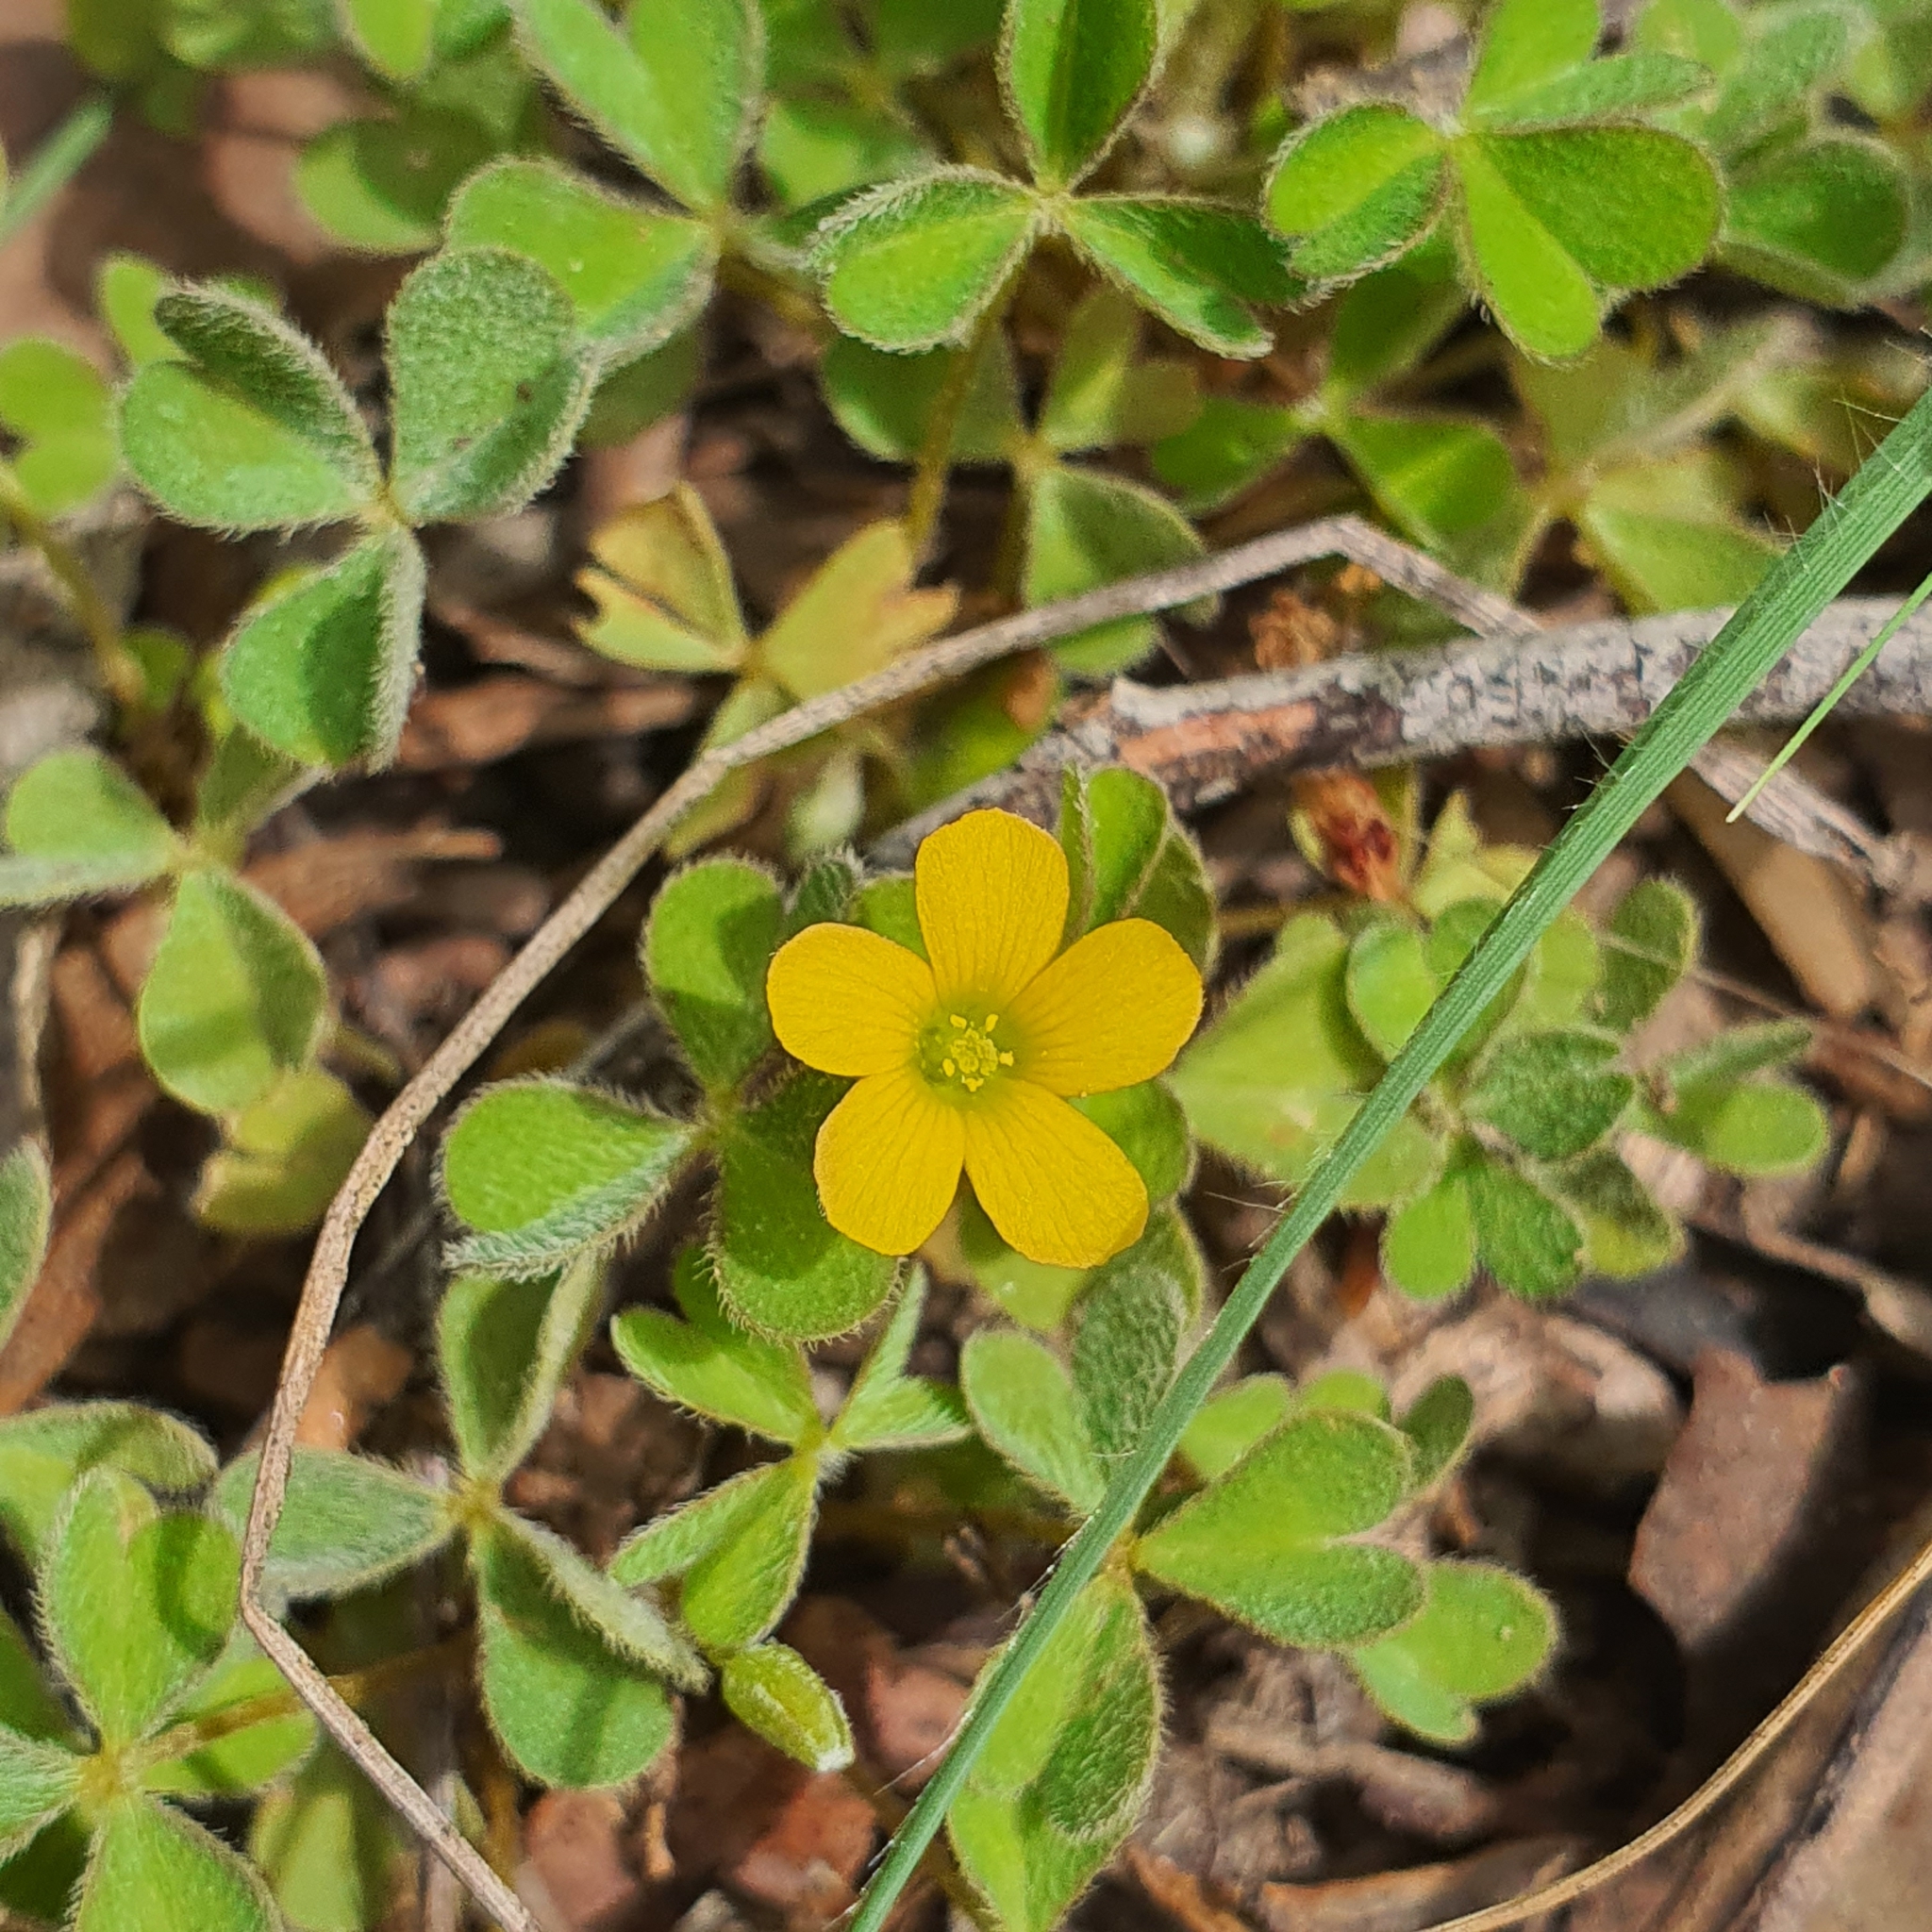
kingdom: Plantae
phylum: Tracheophyta
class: Magnoliopsida
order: Oxalidales
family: Oxalidaceae
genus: Oxalis
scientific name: Oxalis
